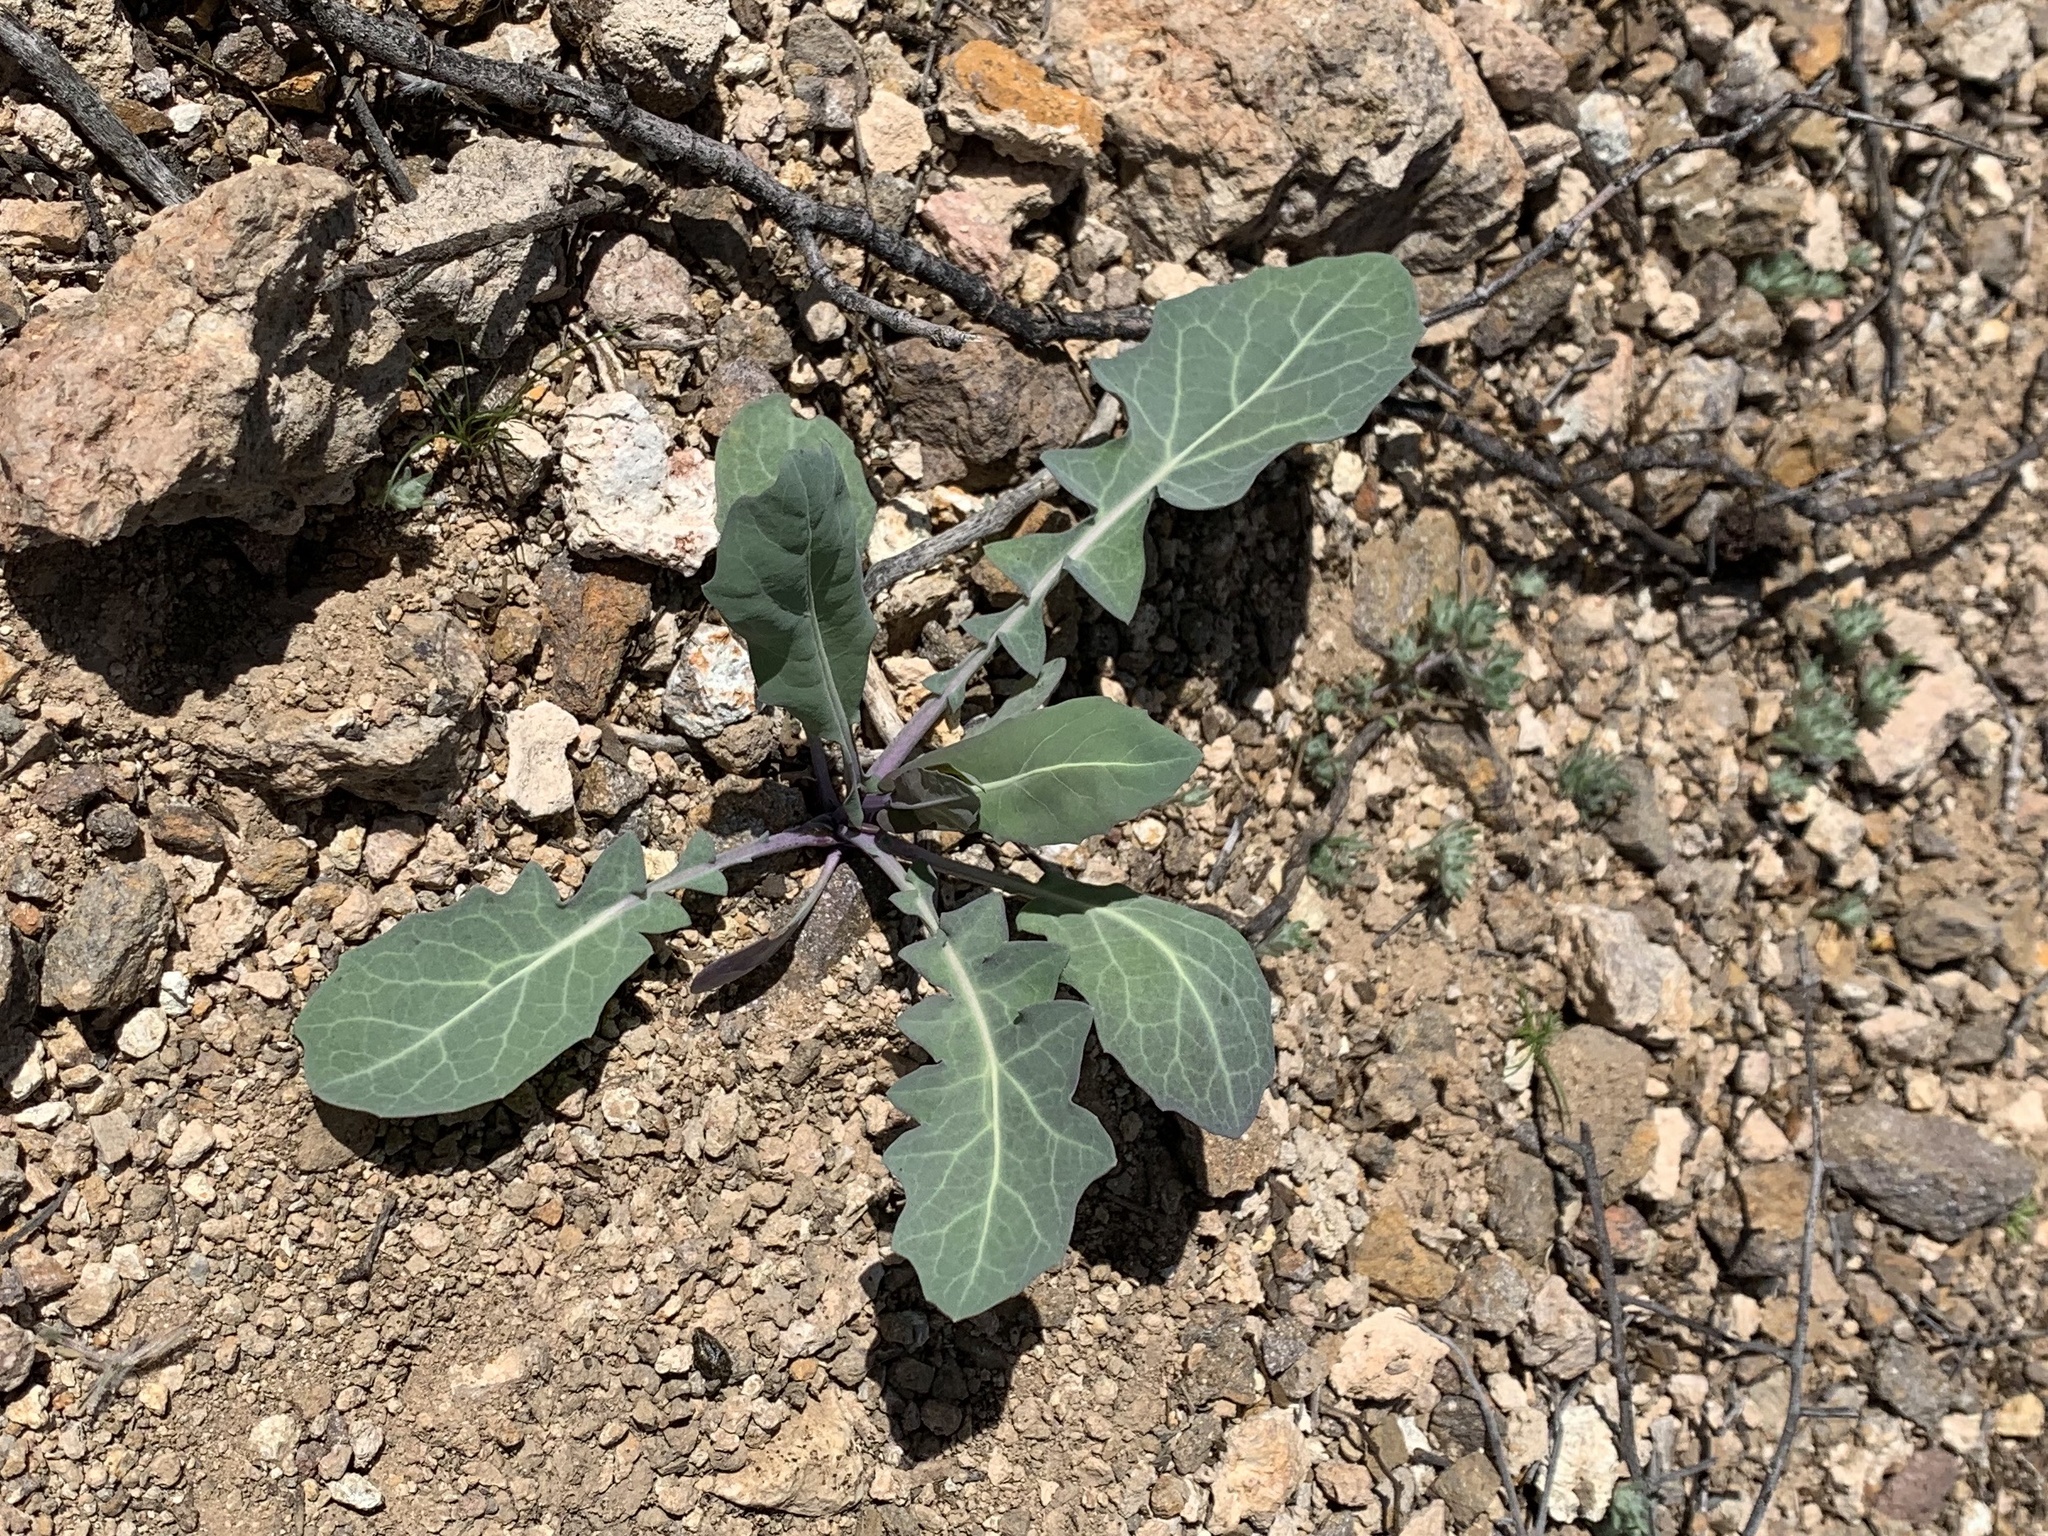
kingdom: Plantae
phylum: Tracheophyta
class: Magnoliopsida
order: Brassicales
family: Brassicaceae
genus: Streptanthus
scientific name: Streptanthus carinatus
